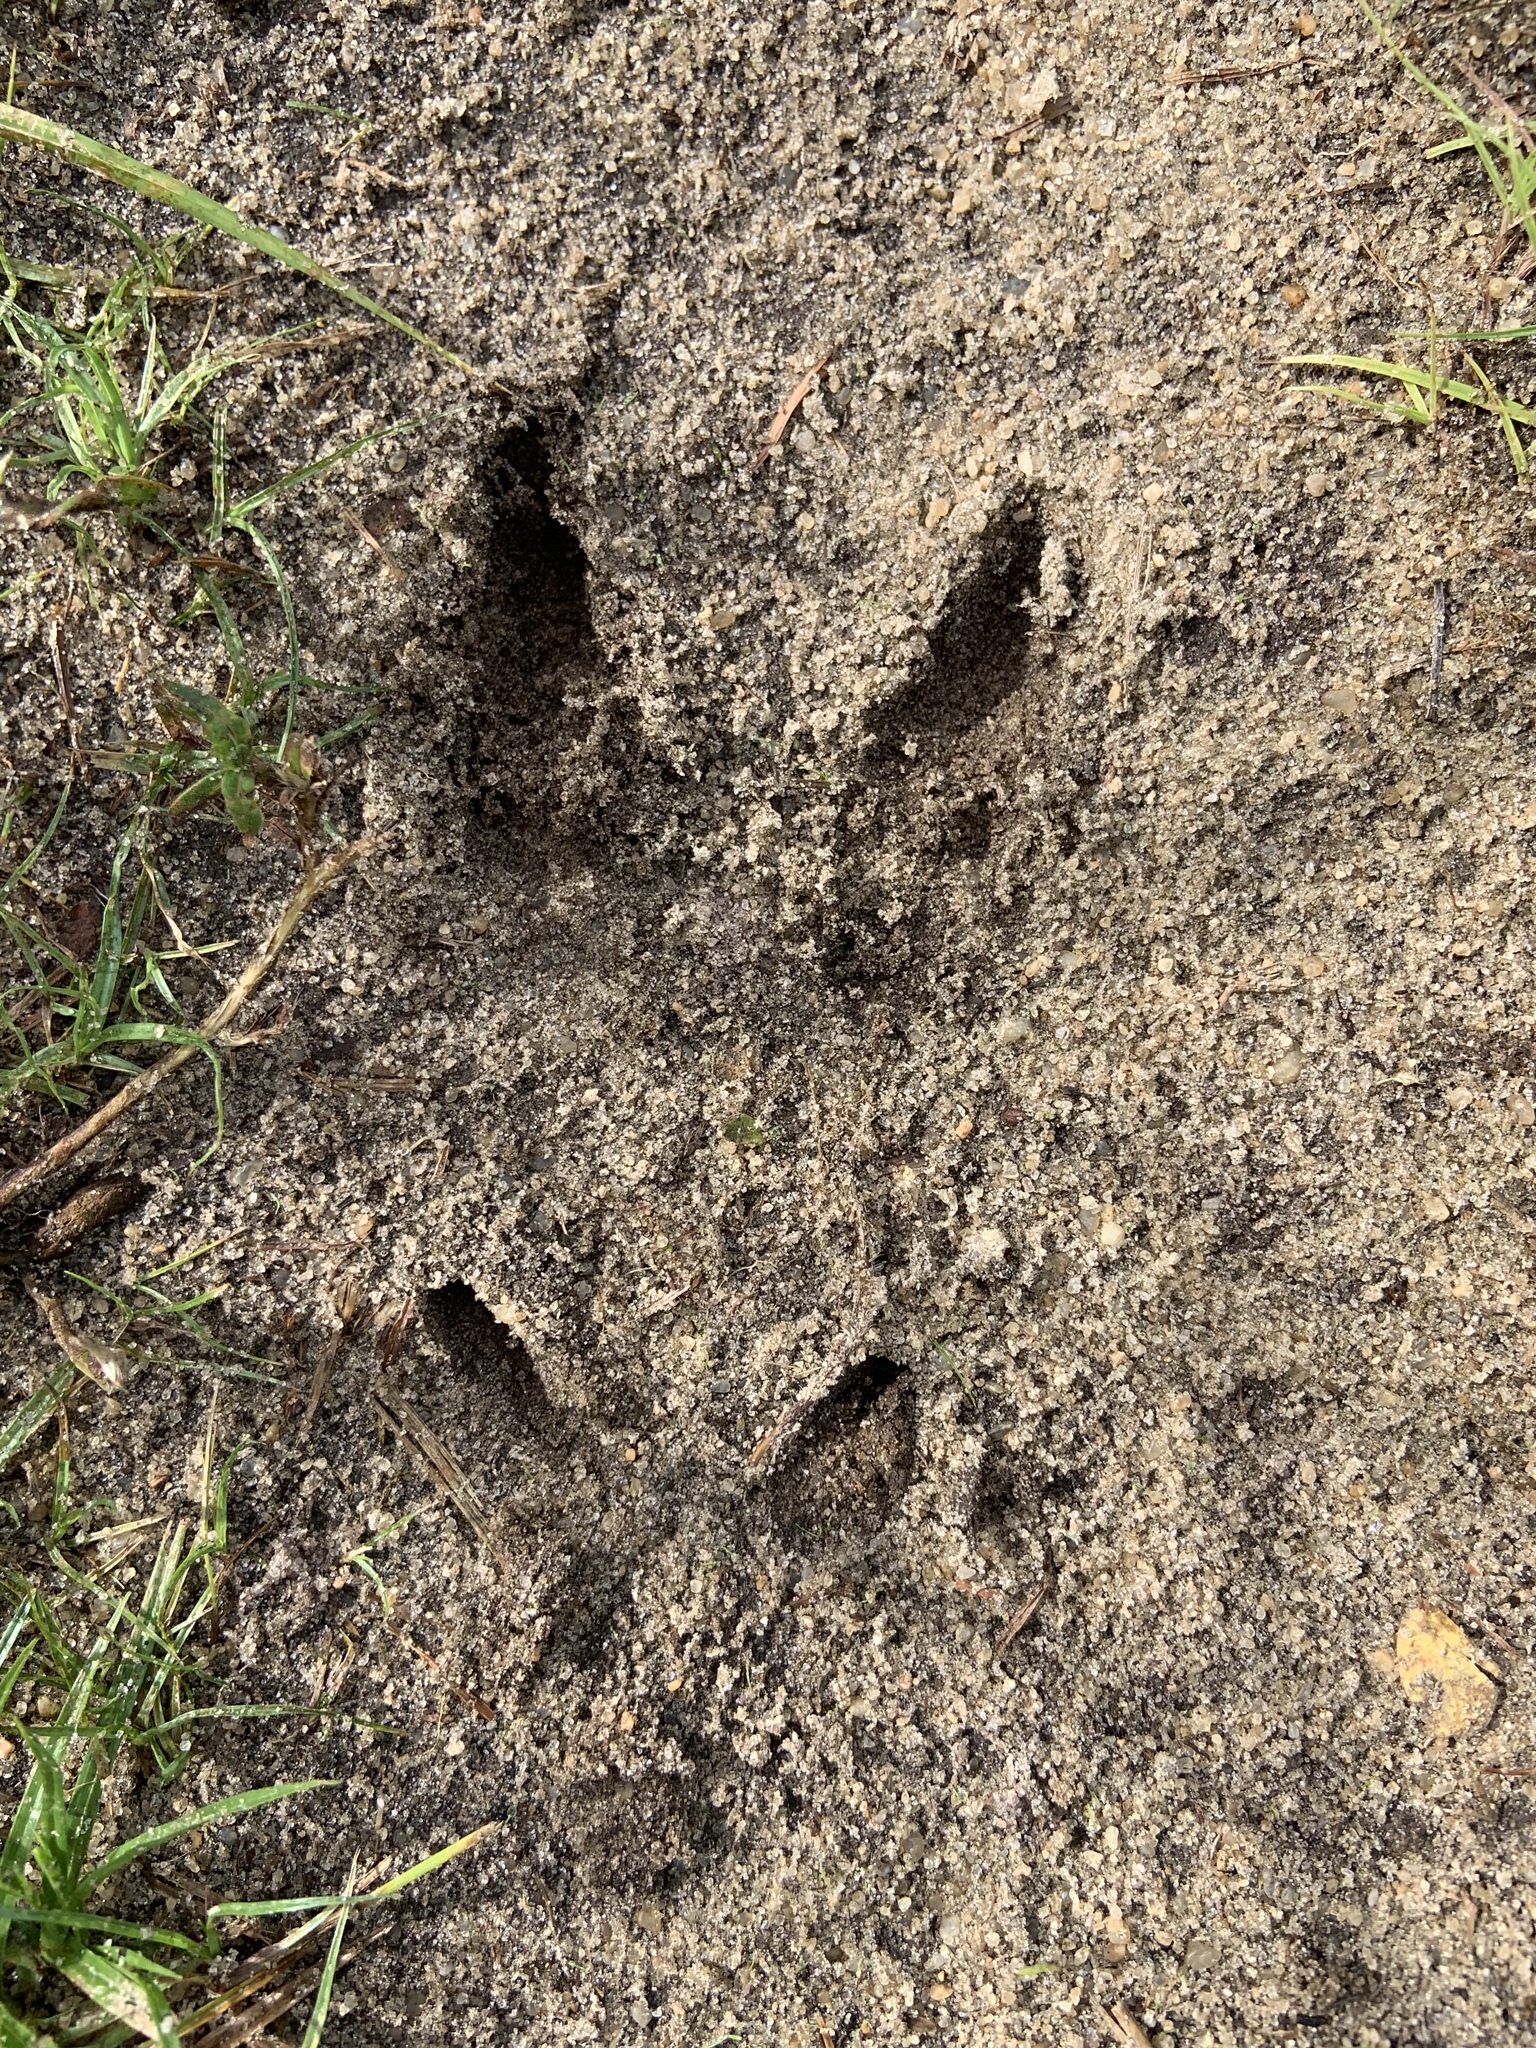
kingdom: Animalia
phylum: Chordata
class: Mammalia
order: Artiodactyla
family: Cervidae
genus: Odocoileus
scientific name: Odocoileus virginianus
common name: White-tailed deer
